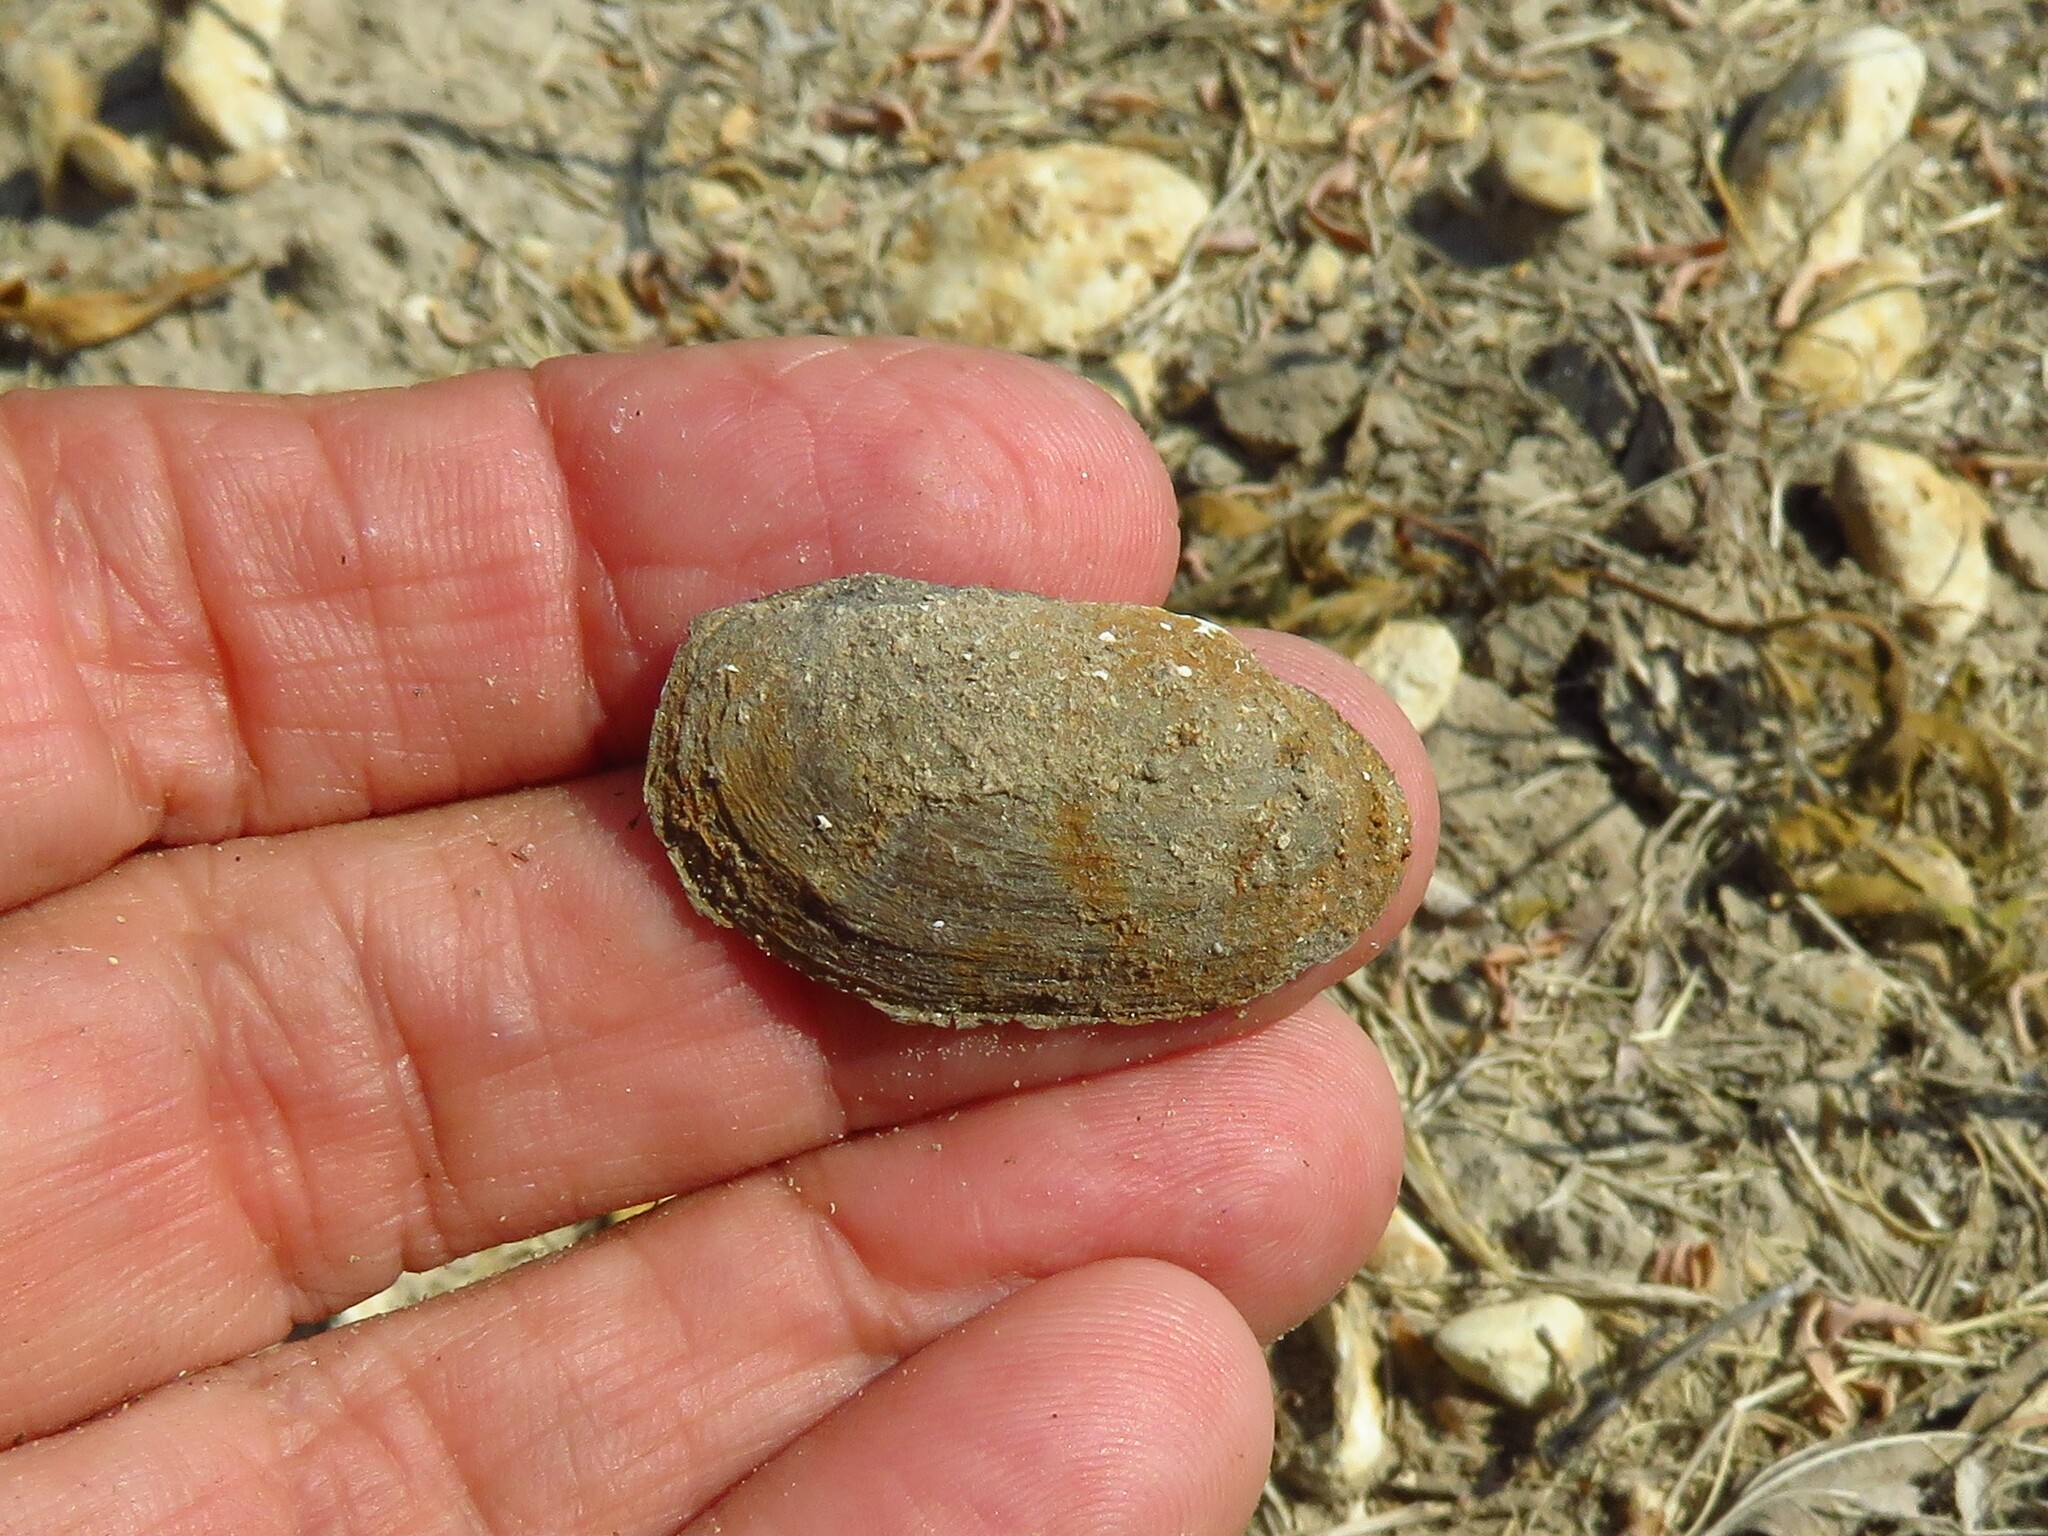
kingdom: Animalia
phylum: Mollusca
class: Bivalvia
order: Unionida
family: Unionidae
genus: Toxolasma
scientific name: Toxolasma texasiense
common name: Texas lilliput
